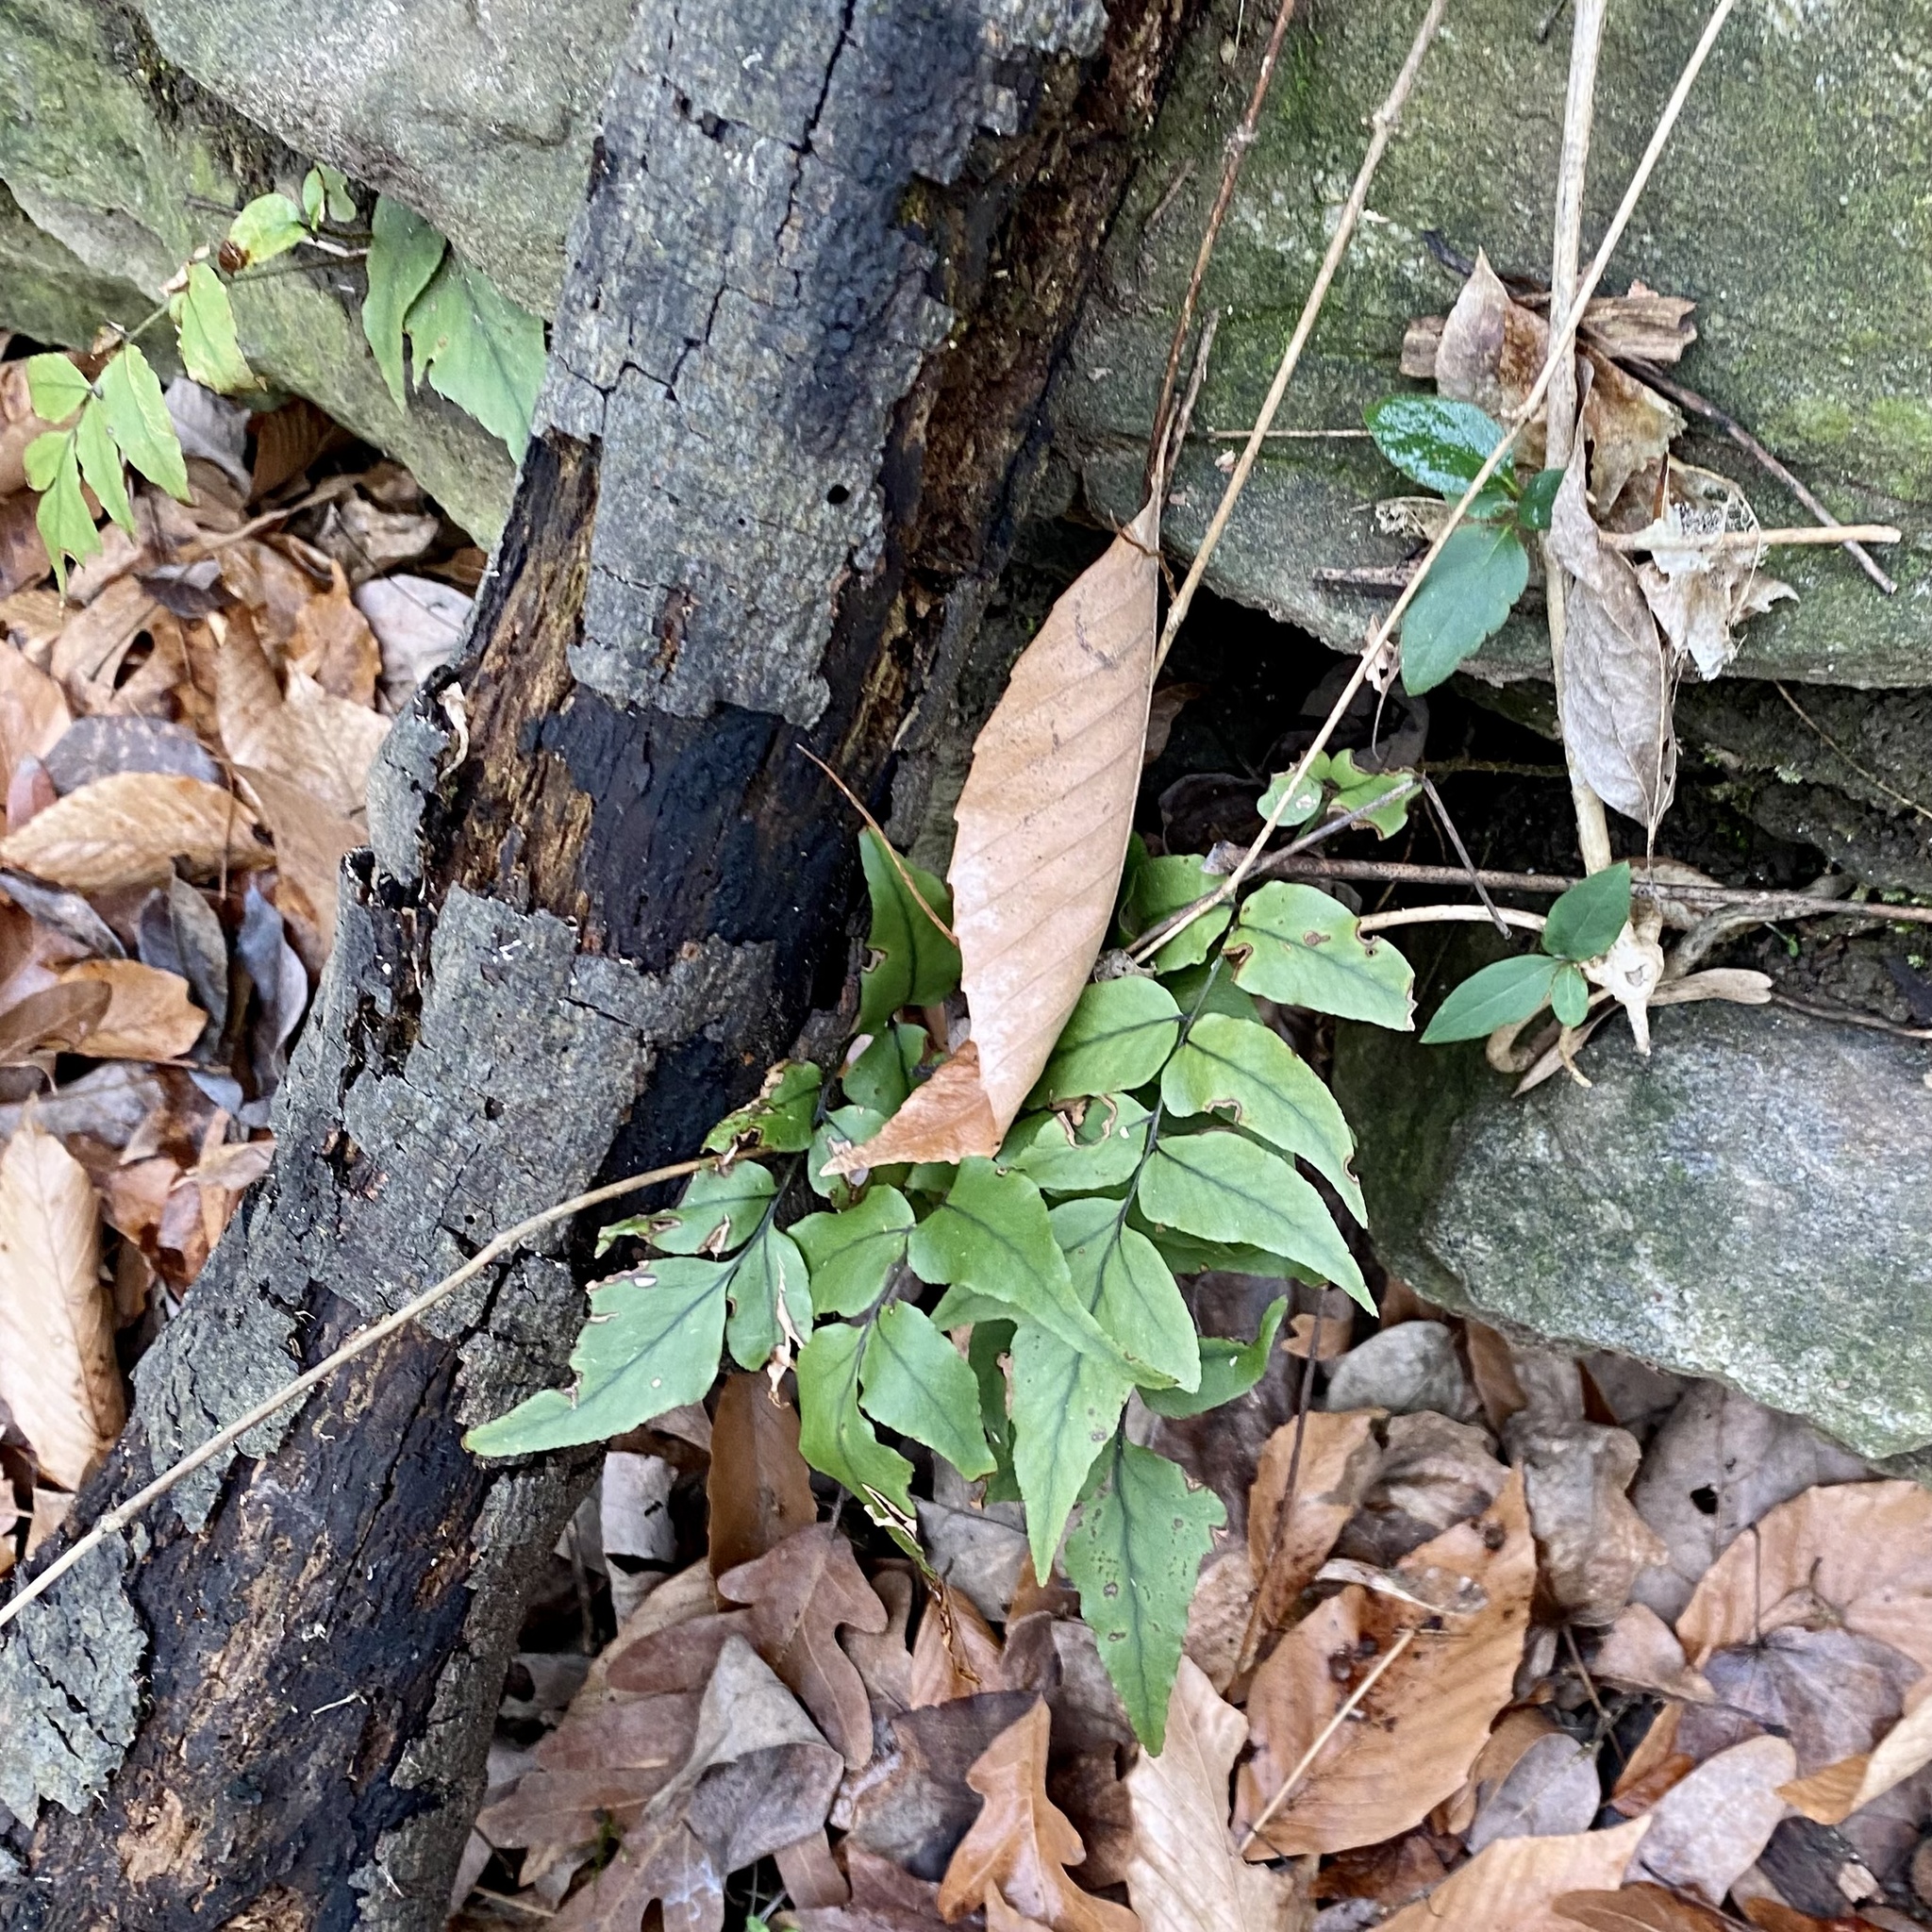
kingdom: Plantae
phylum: Tracheophyta
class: Polypodiopsida
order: Polypodiales
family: Dryopteridaceae
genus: Cyrtomium
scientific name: Cyrtomium fortunei
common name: Asian netvein hollyfern
